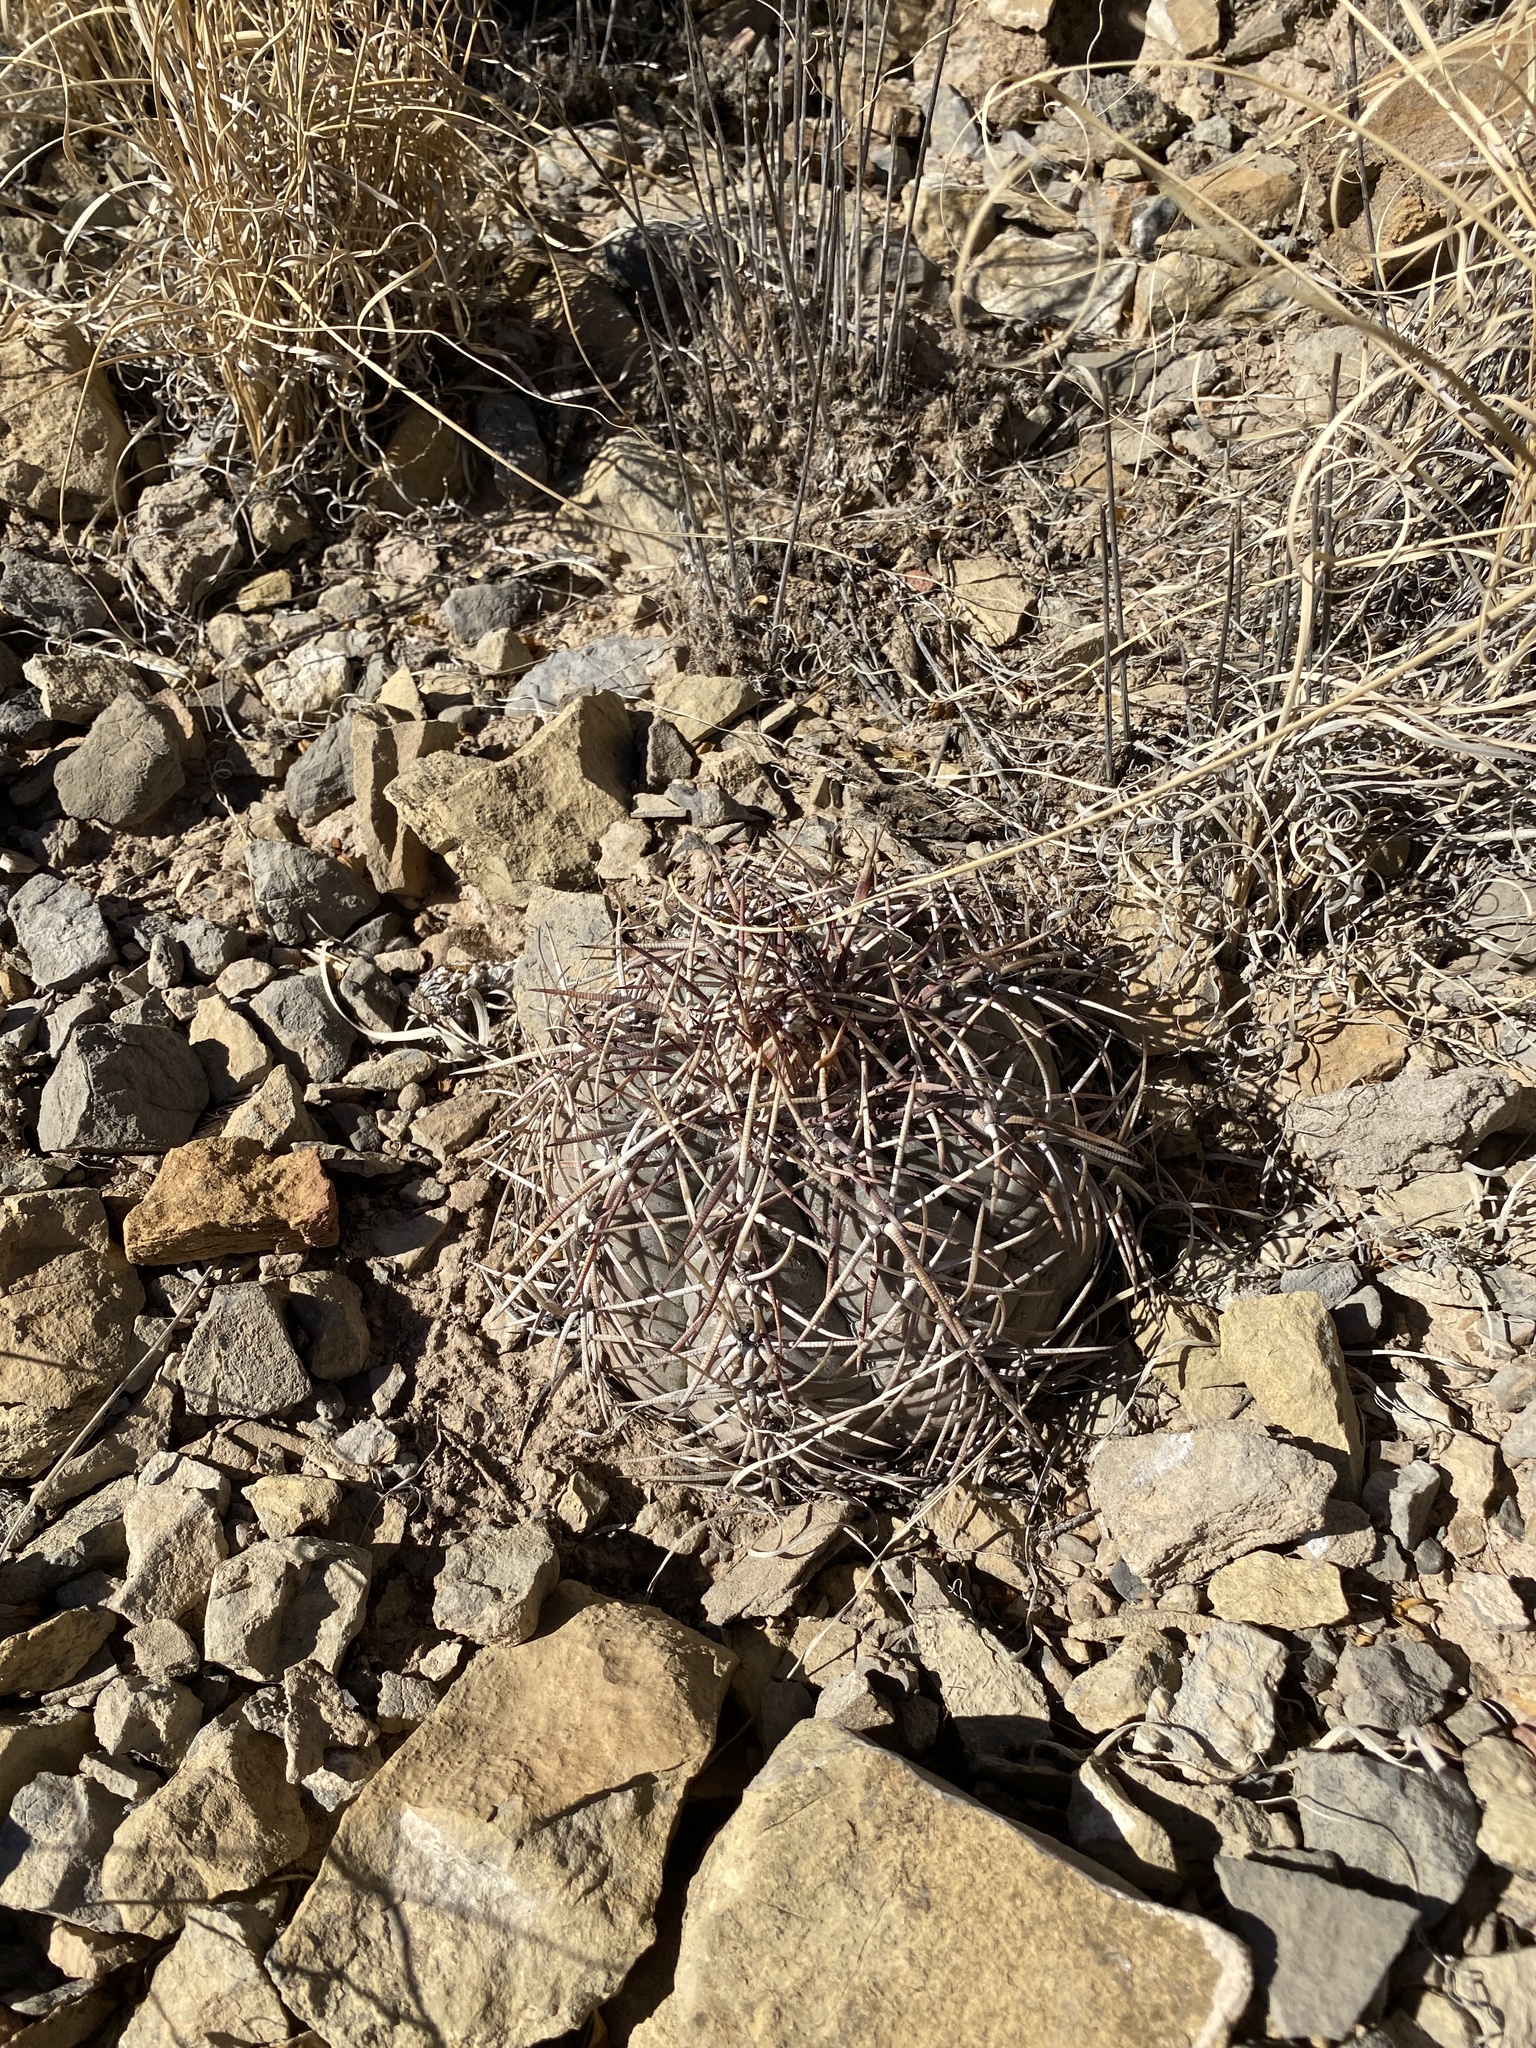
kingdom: Plantae
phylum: Tracheophyta
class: Magnoliopsida
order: Caryophyllales
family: Cactaceae
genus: Echinocactus
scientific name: Echinocactus horizonthalonius
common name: Devilshead
